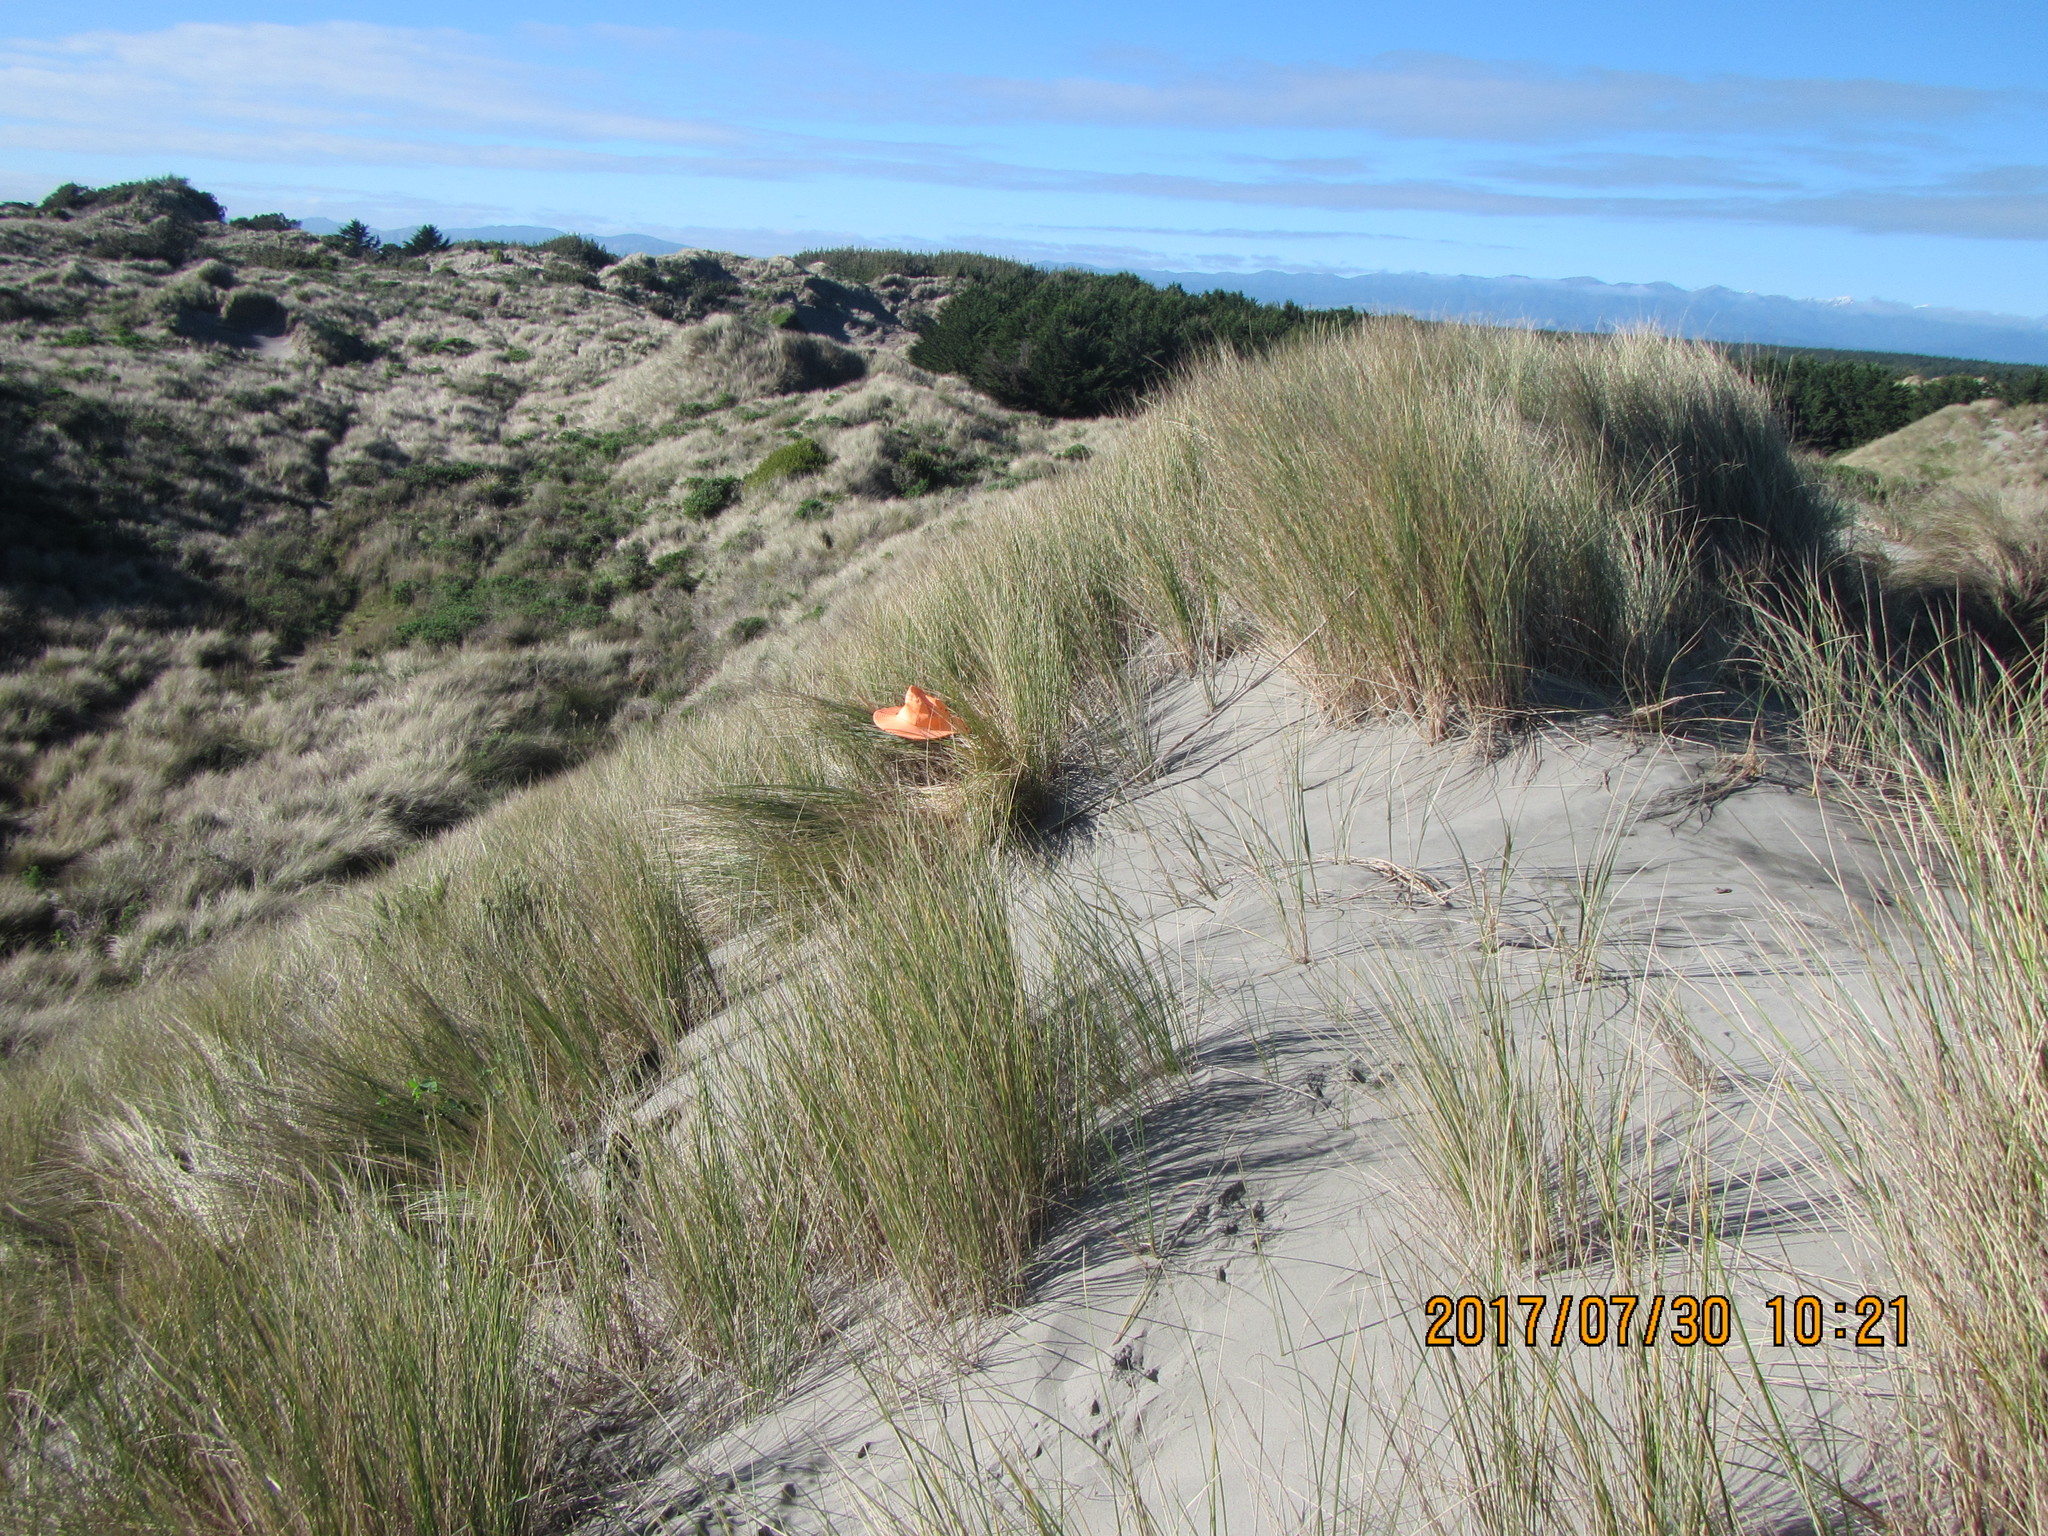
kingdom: Animalia
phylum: Arthropoda
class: Insecta
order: Orthoptera
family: Acrididae
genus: Locusta
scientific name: Locusta migratoria
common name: Migratory locust
